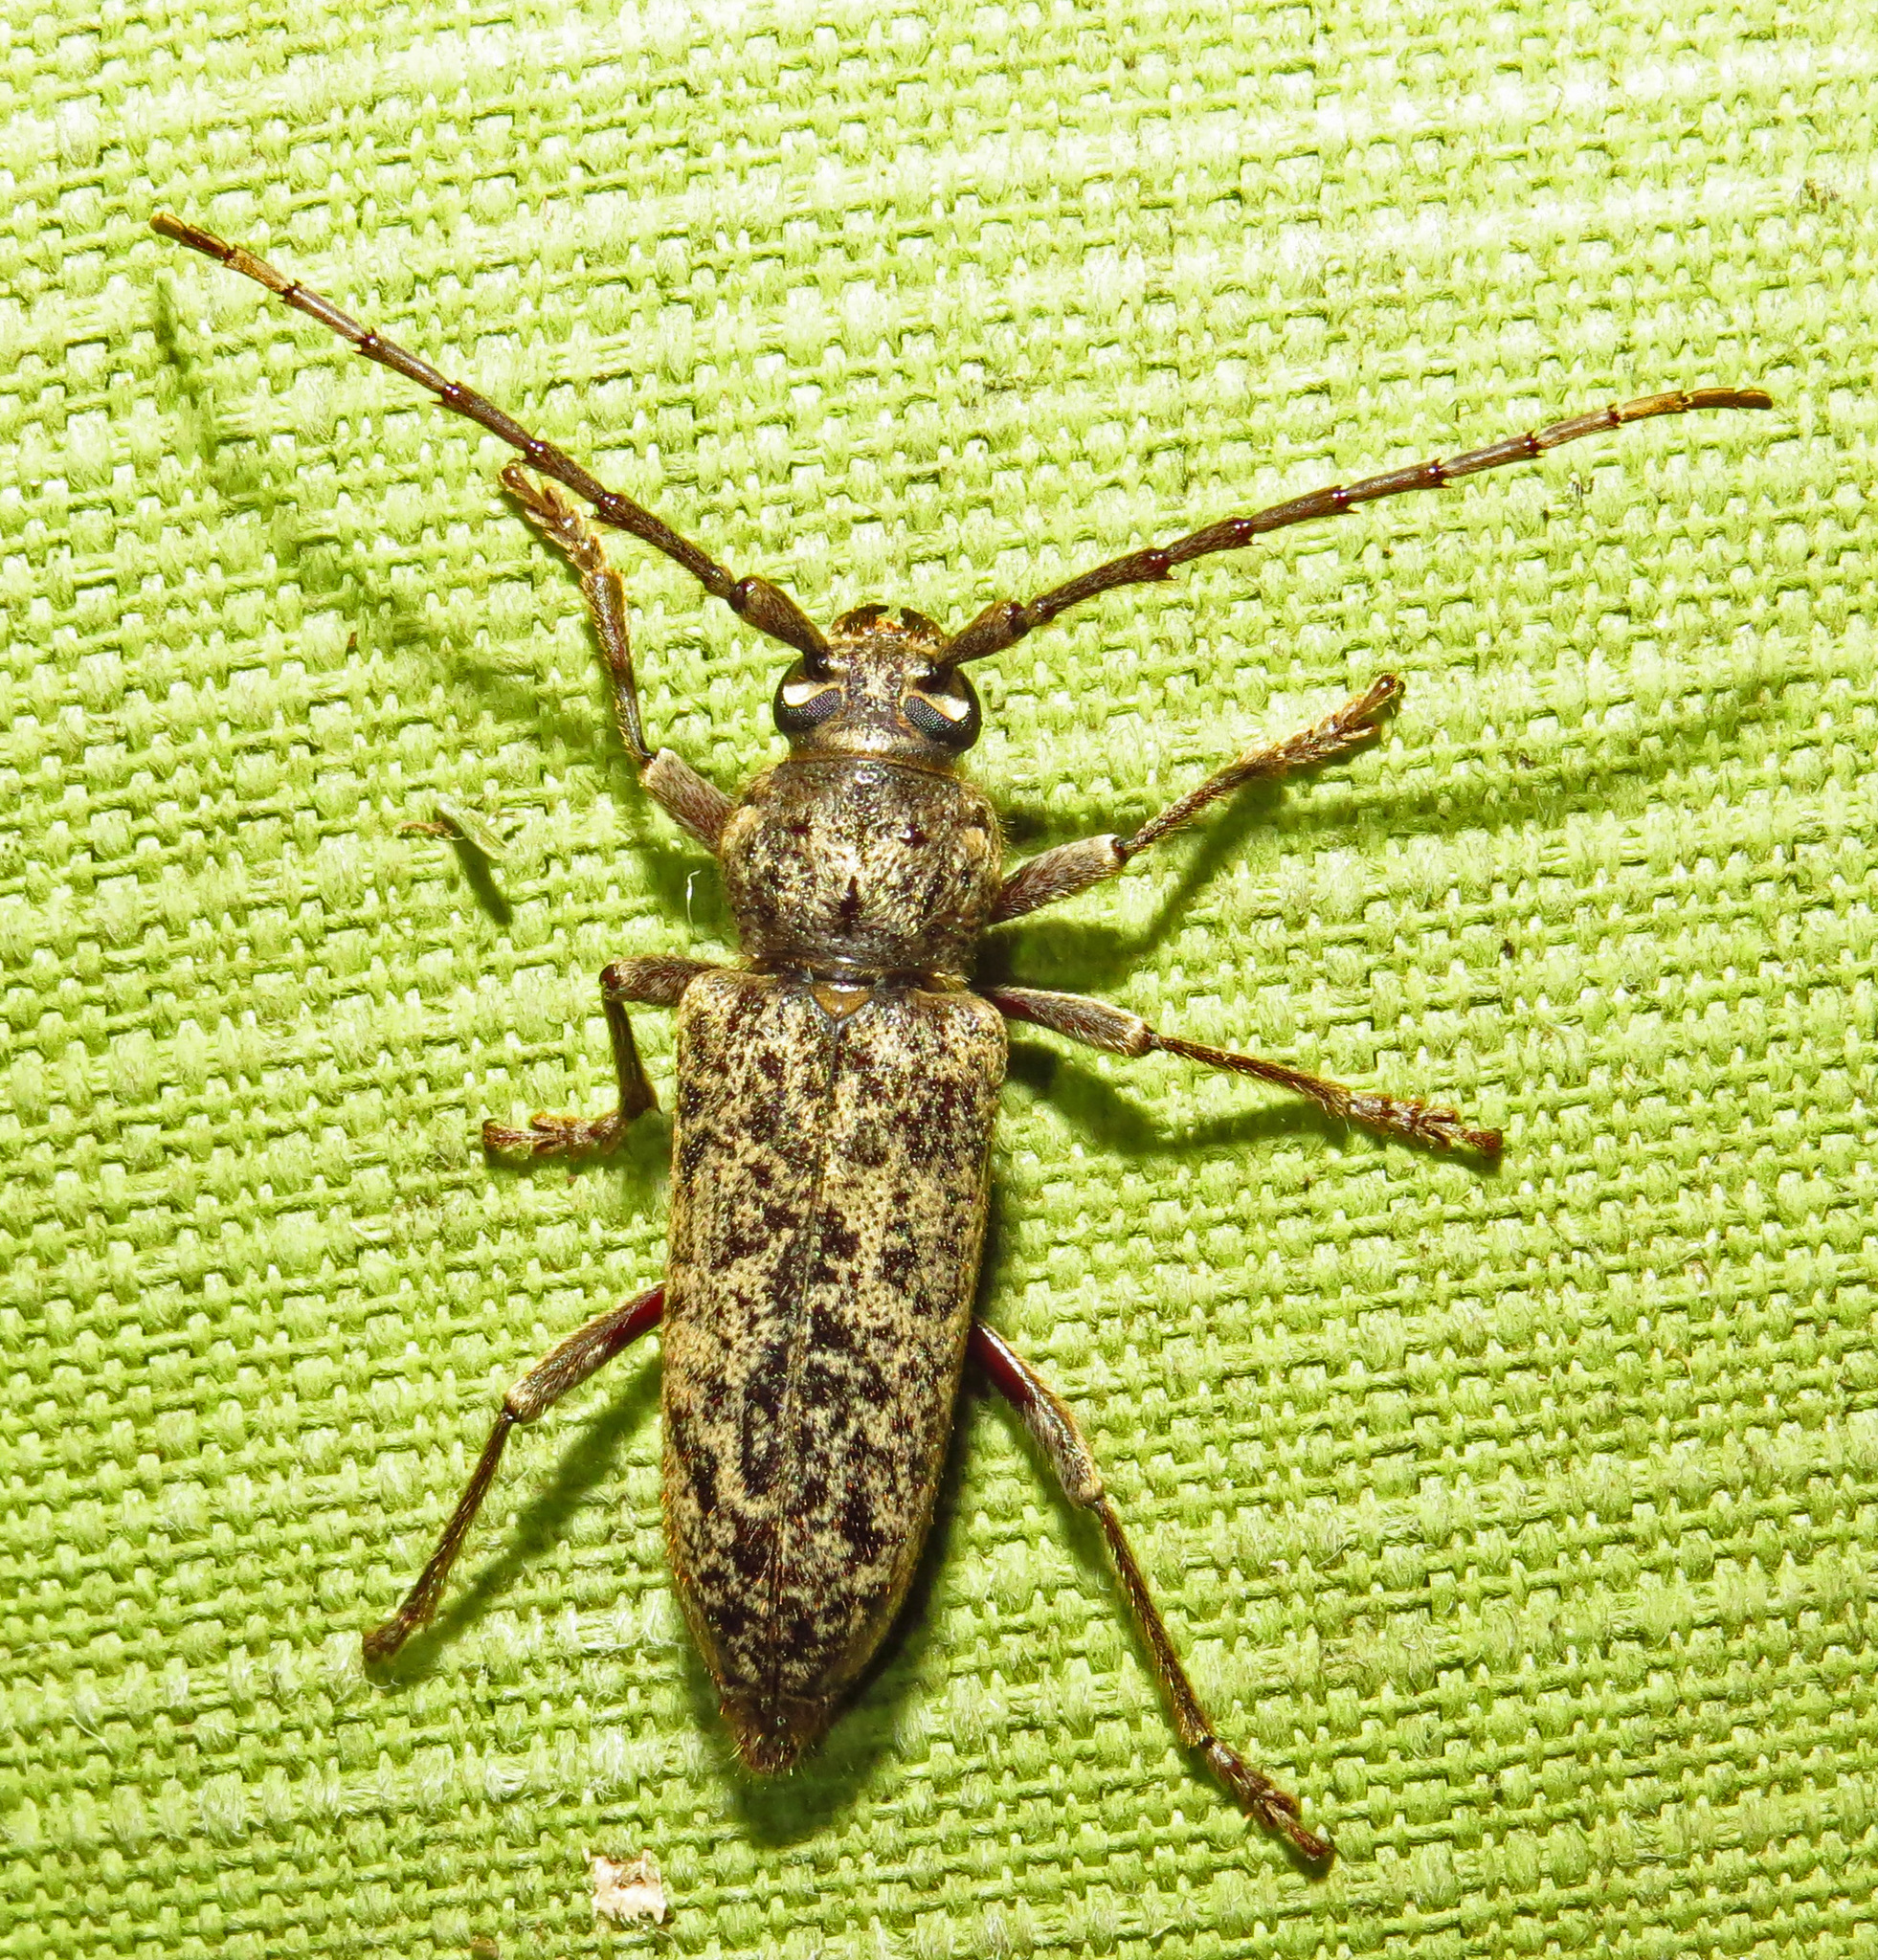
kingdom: Animalia
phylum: Arthropoda
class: Insecta
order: Coleoptera
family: Cerambycidae
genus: Enaphalodes
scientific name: Enaphalodes cortiphagus
